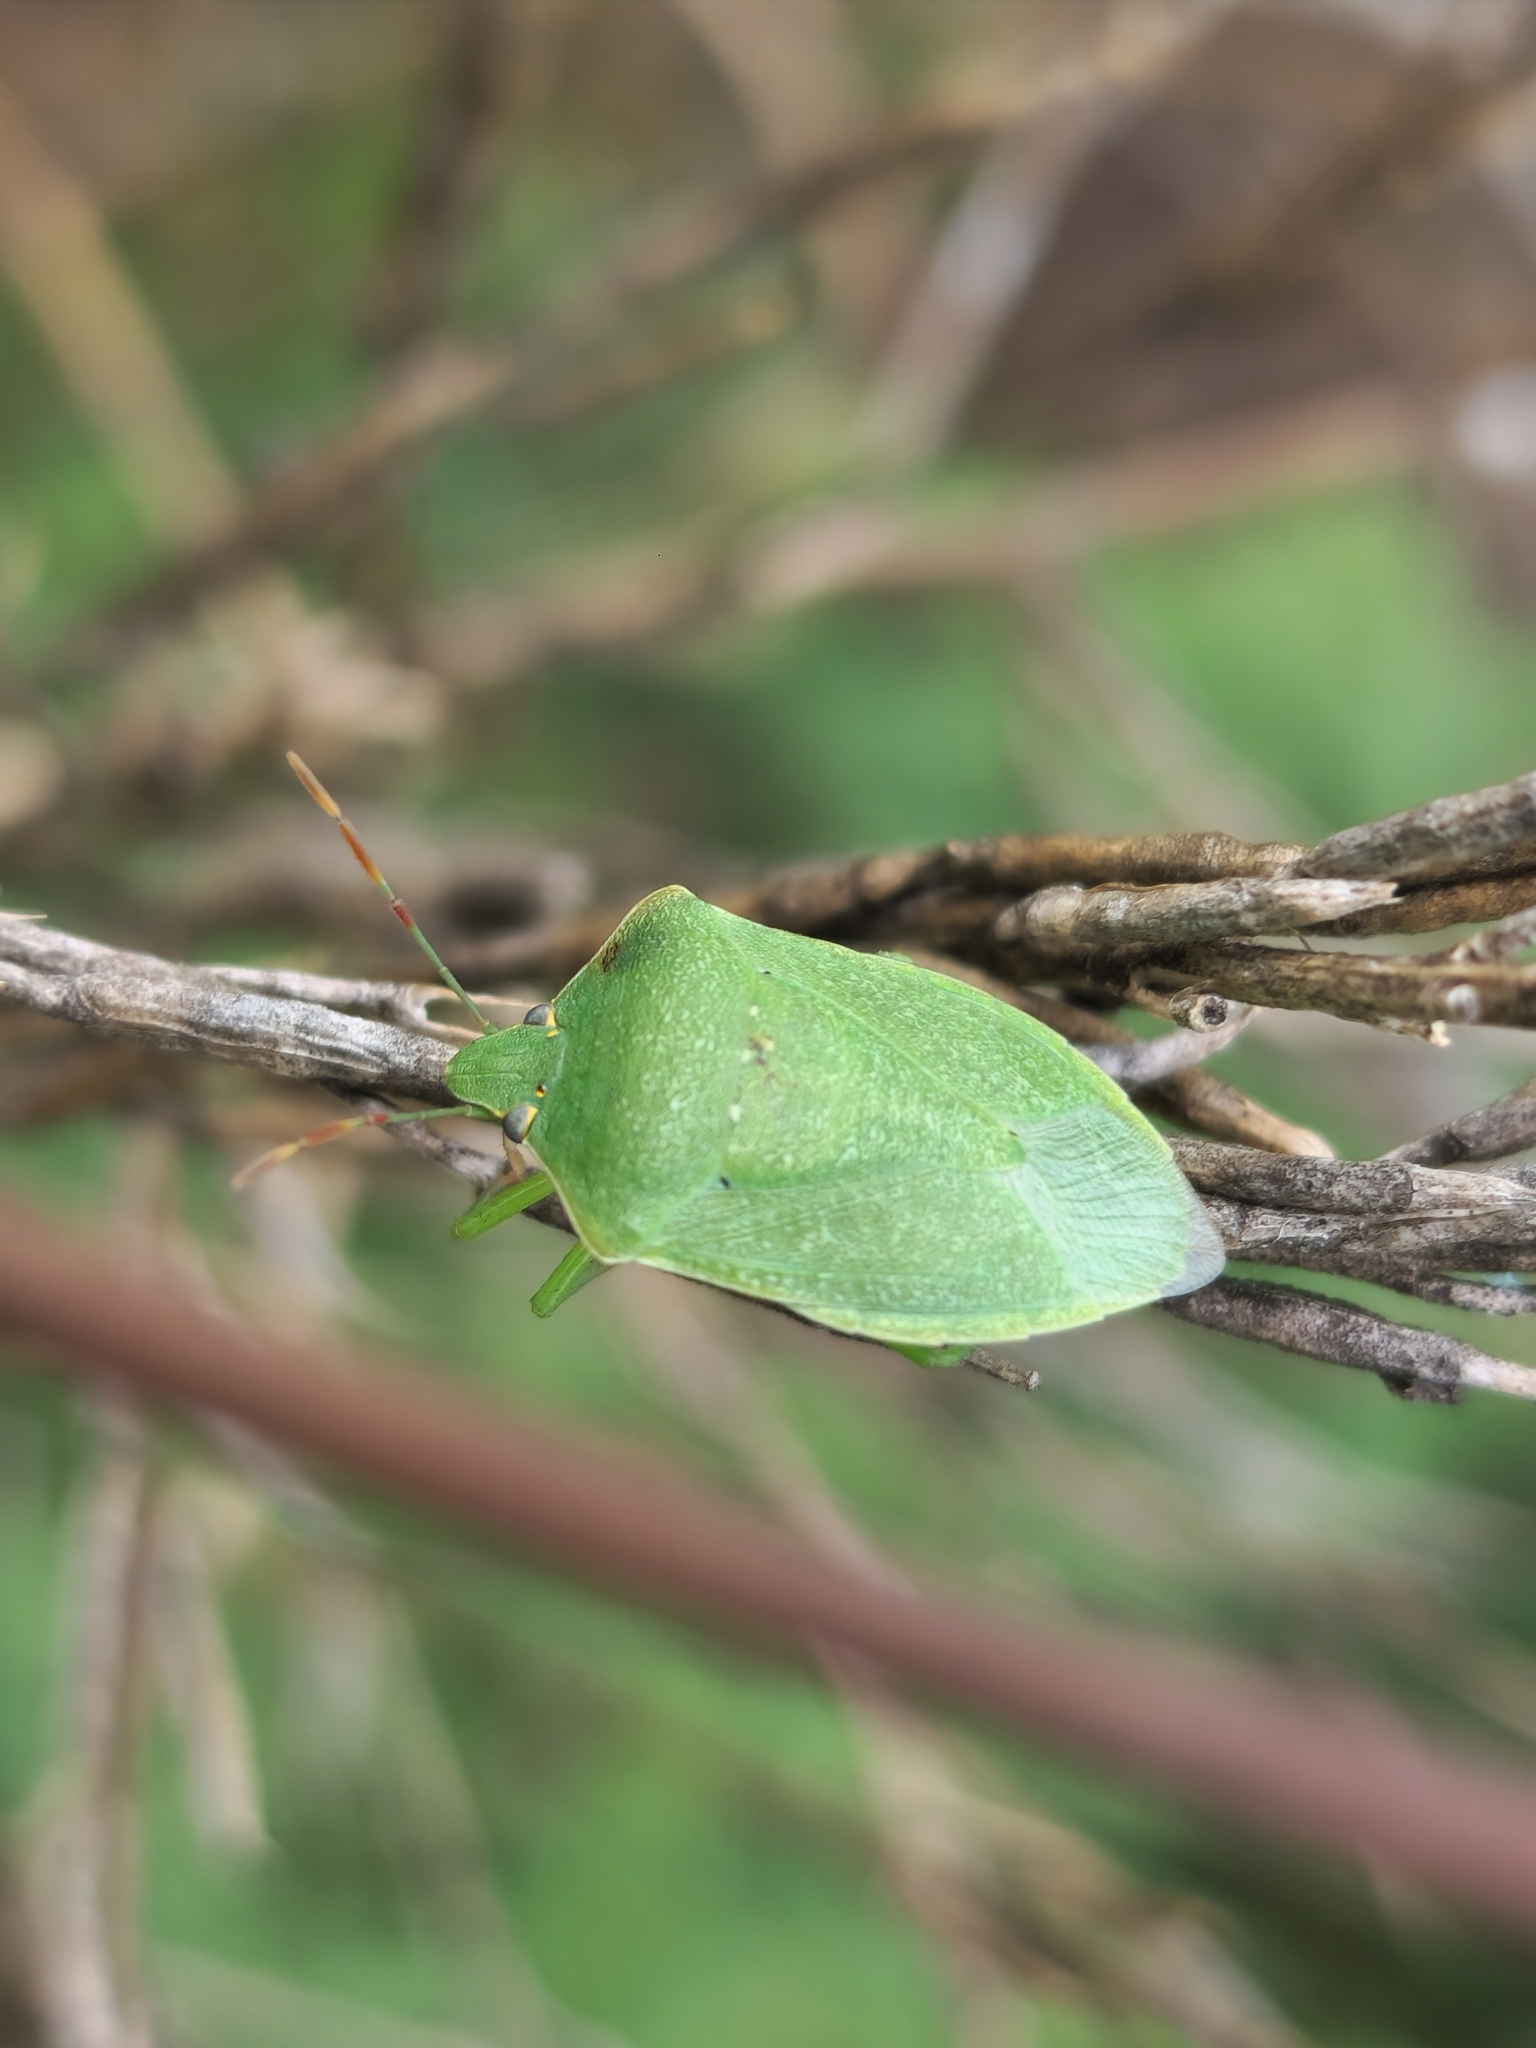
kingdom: Animalia
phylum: Arthropoda
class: Insecta
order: Hemiptera
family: Pentatomidae
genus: Nezara
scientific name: Nezara viridula
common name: Southern green stink bug
